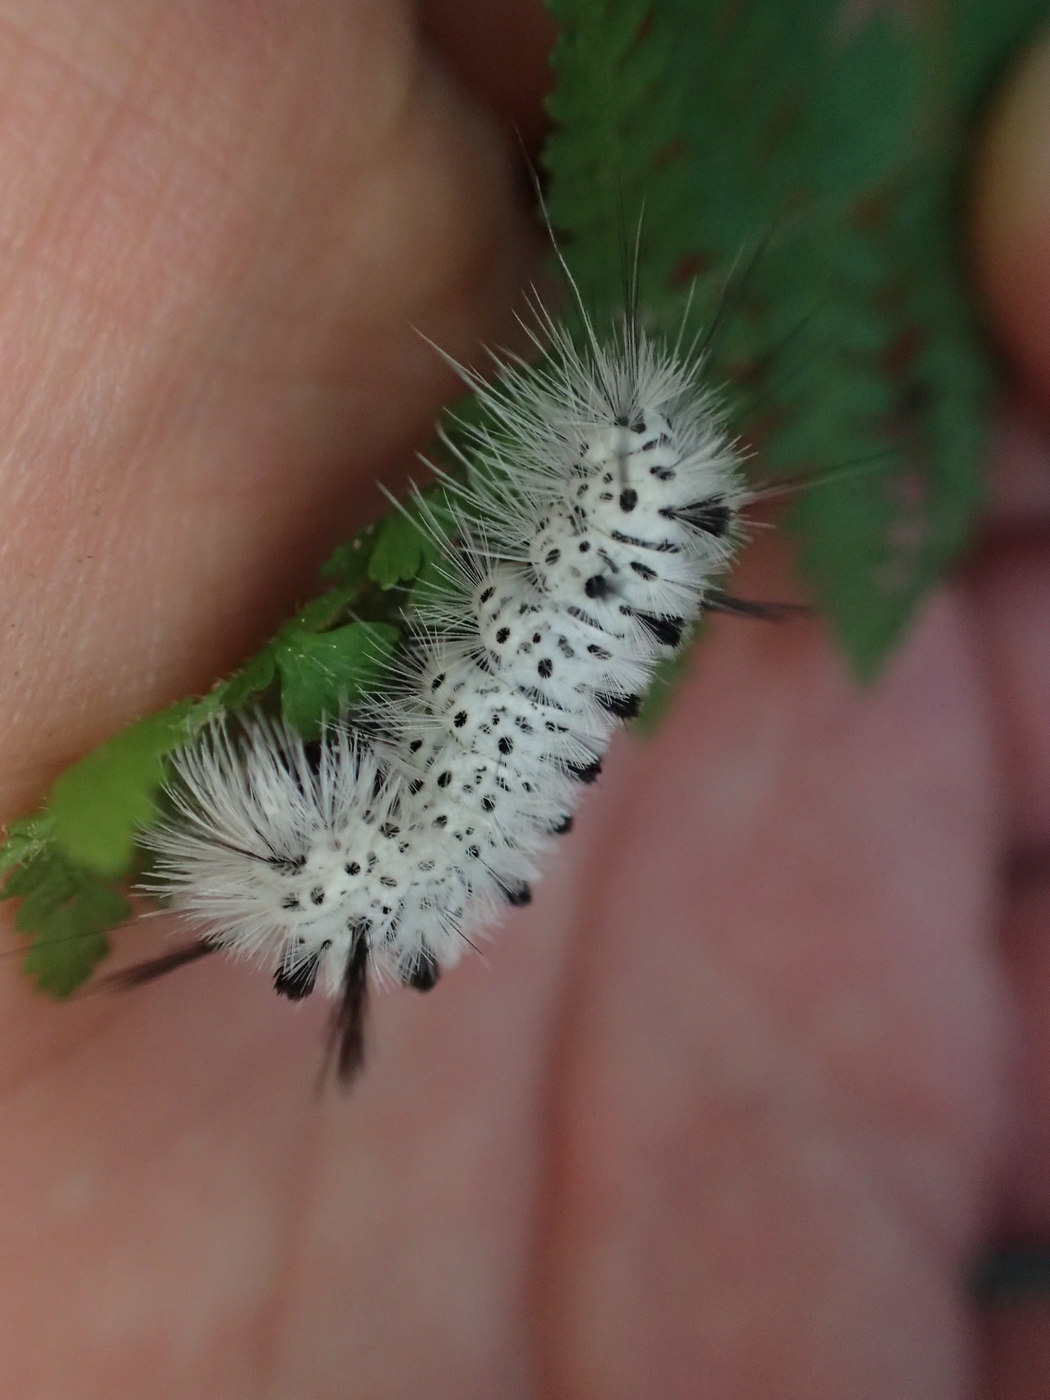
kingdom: Animalia
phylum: Arthropoda
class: Insecta
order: Lepidoptera
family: Erebidae
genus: Lophocampa
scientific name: Lophocampa caryae
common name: Hickory tussock moth
